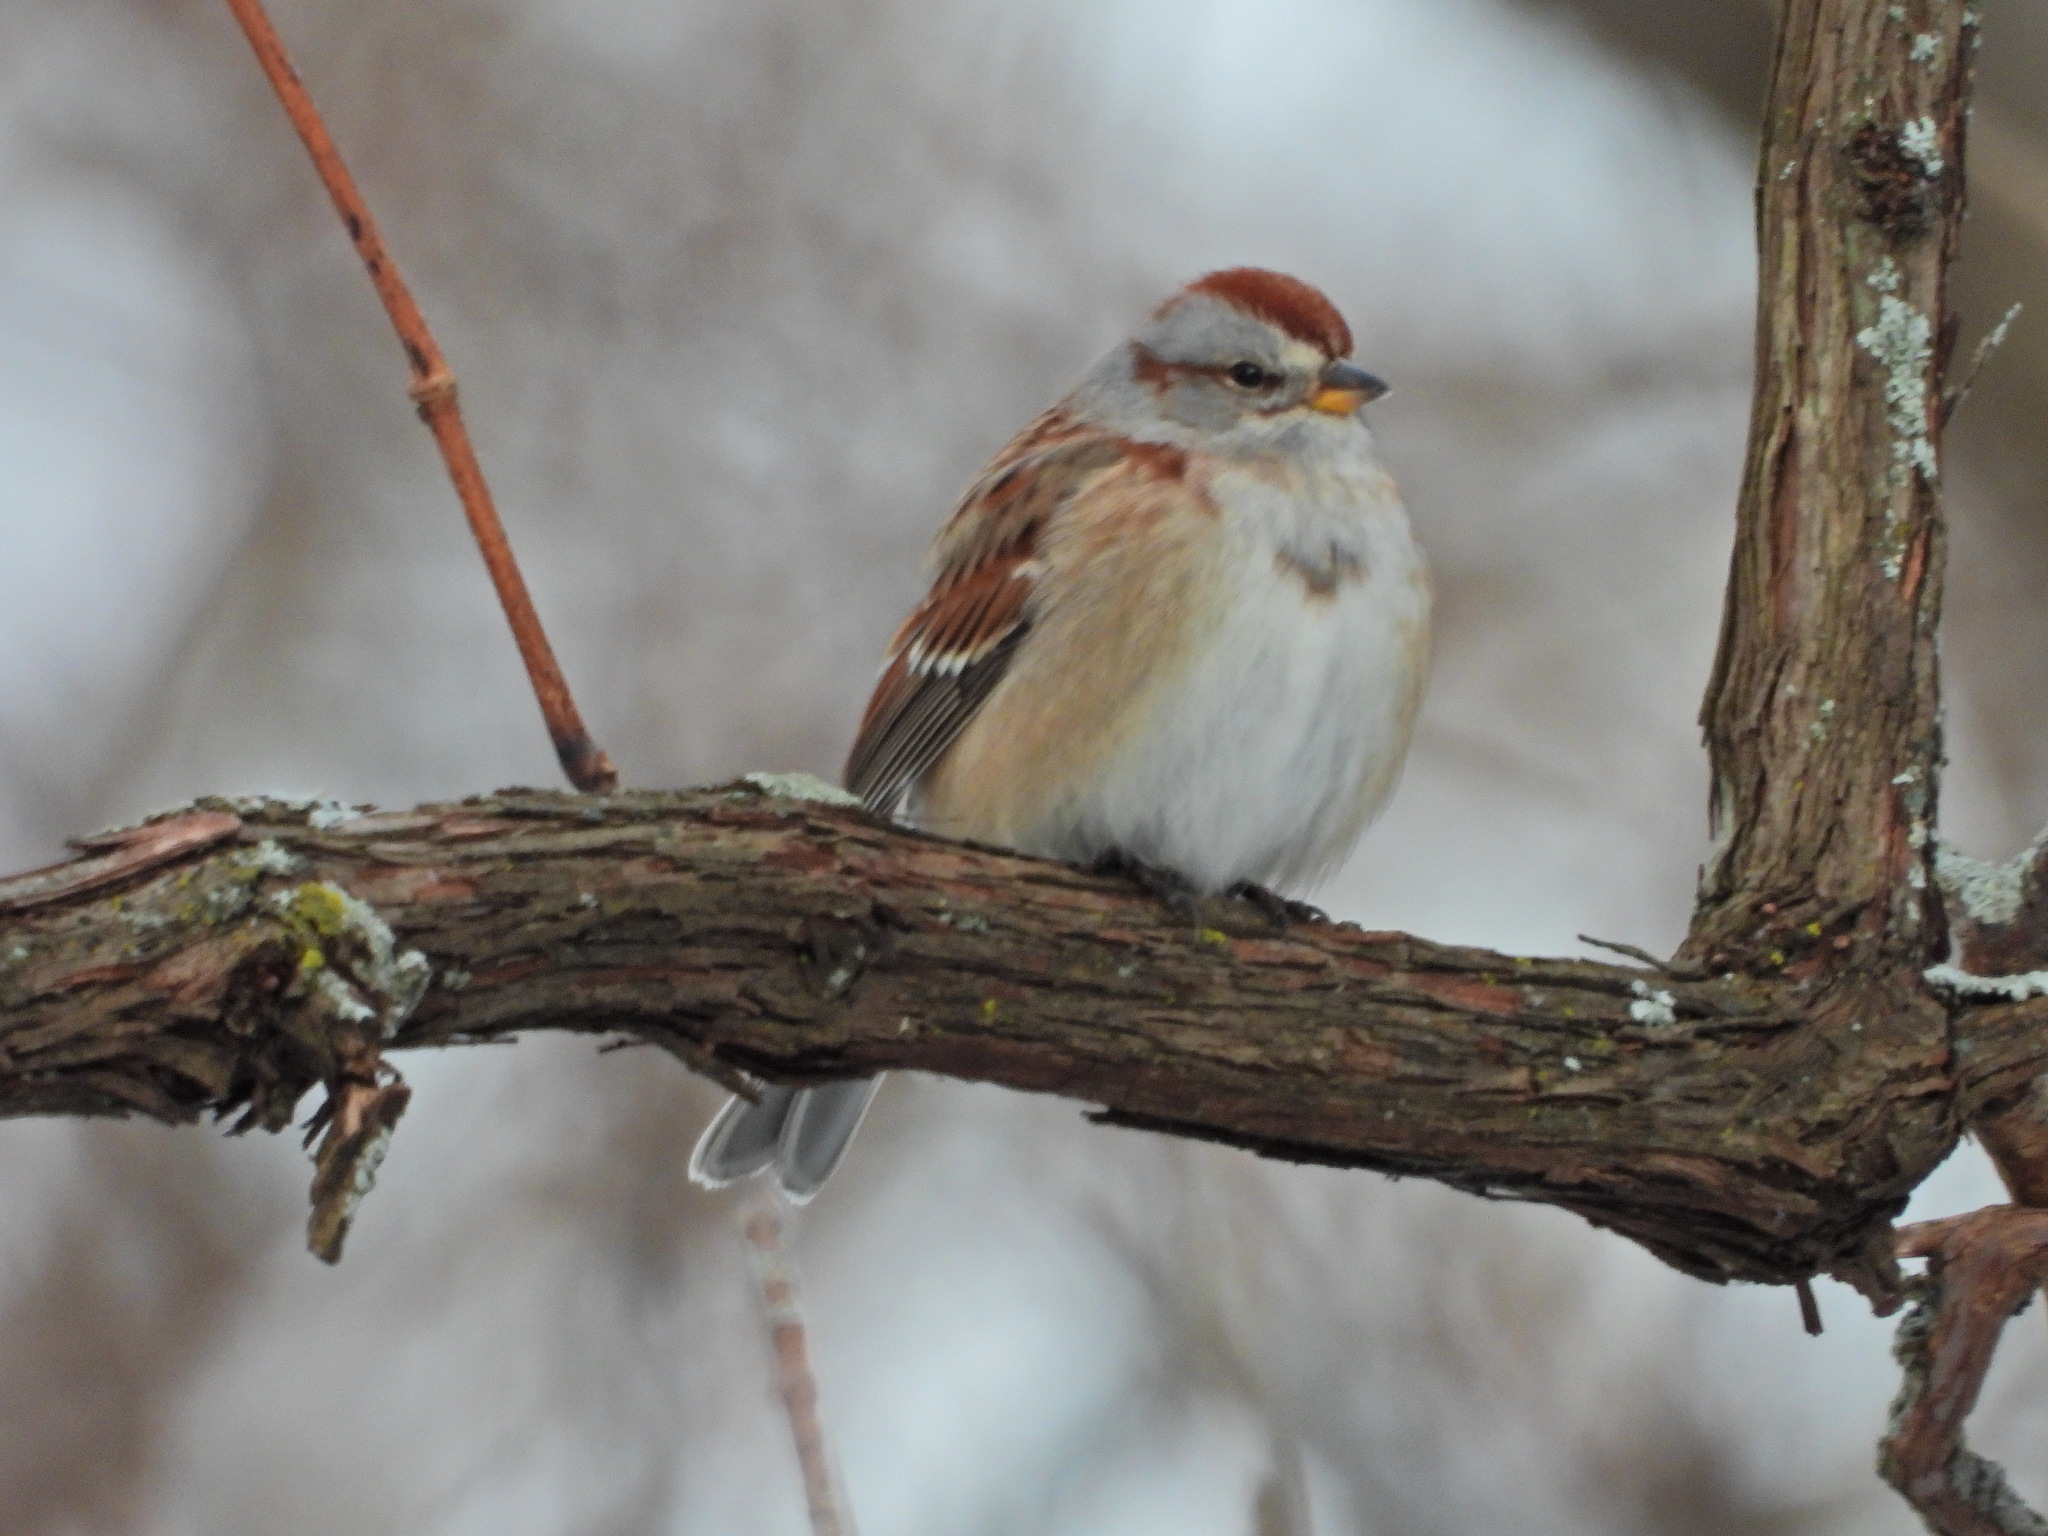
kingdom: Animalia
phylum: Chordata
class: Aves
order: Passeriformes
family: Passerellidae
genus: Spizelloides
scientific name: Spizelloides arborea
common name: American tree sparrow
